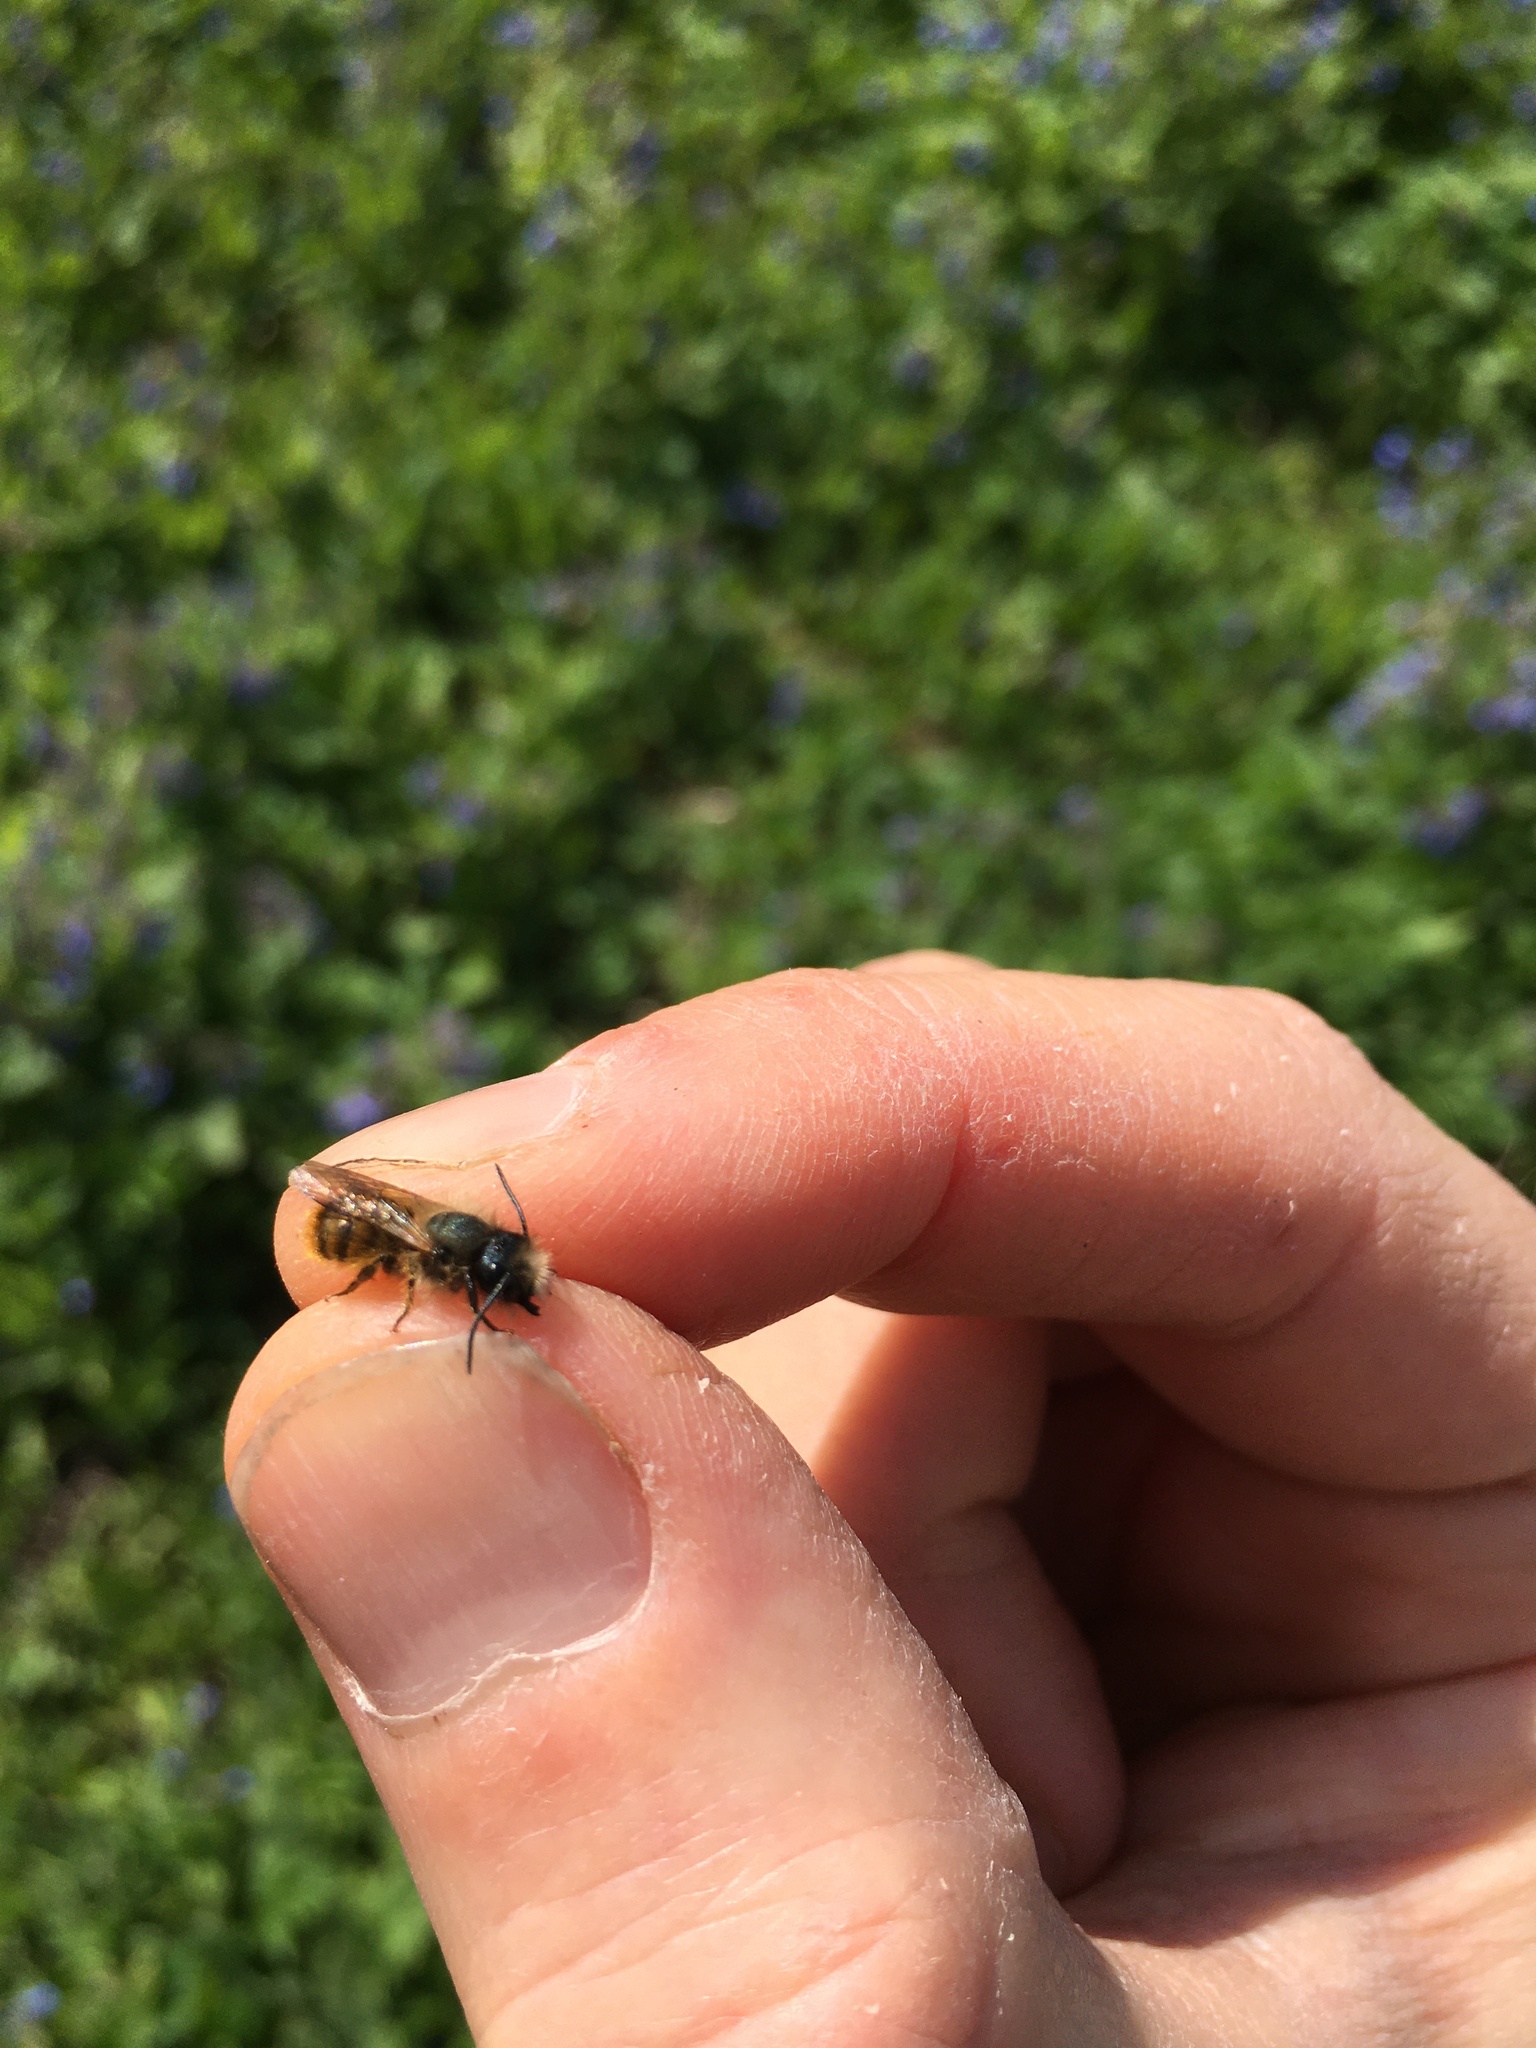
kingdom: Animalia
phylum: Arthropoda
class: Insecta
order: Hymenoptera
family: Megachilidae
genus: Osmia
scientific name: Osmia bicornis
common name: Red mason bee
